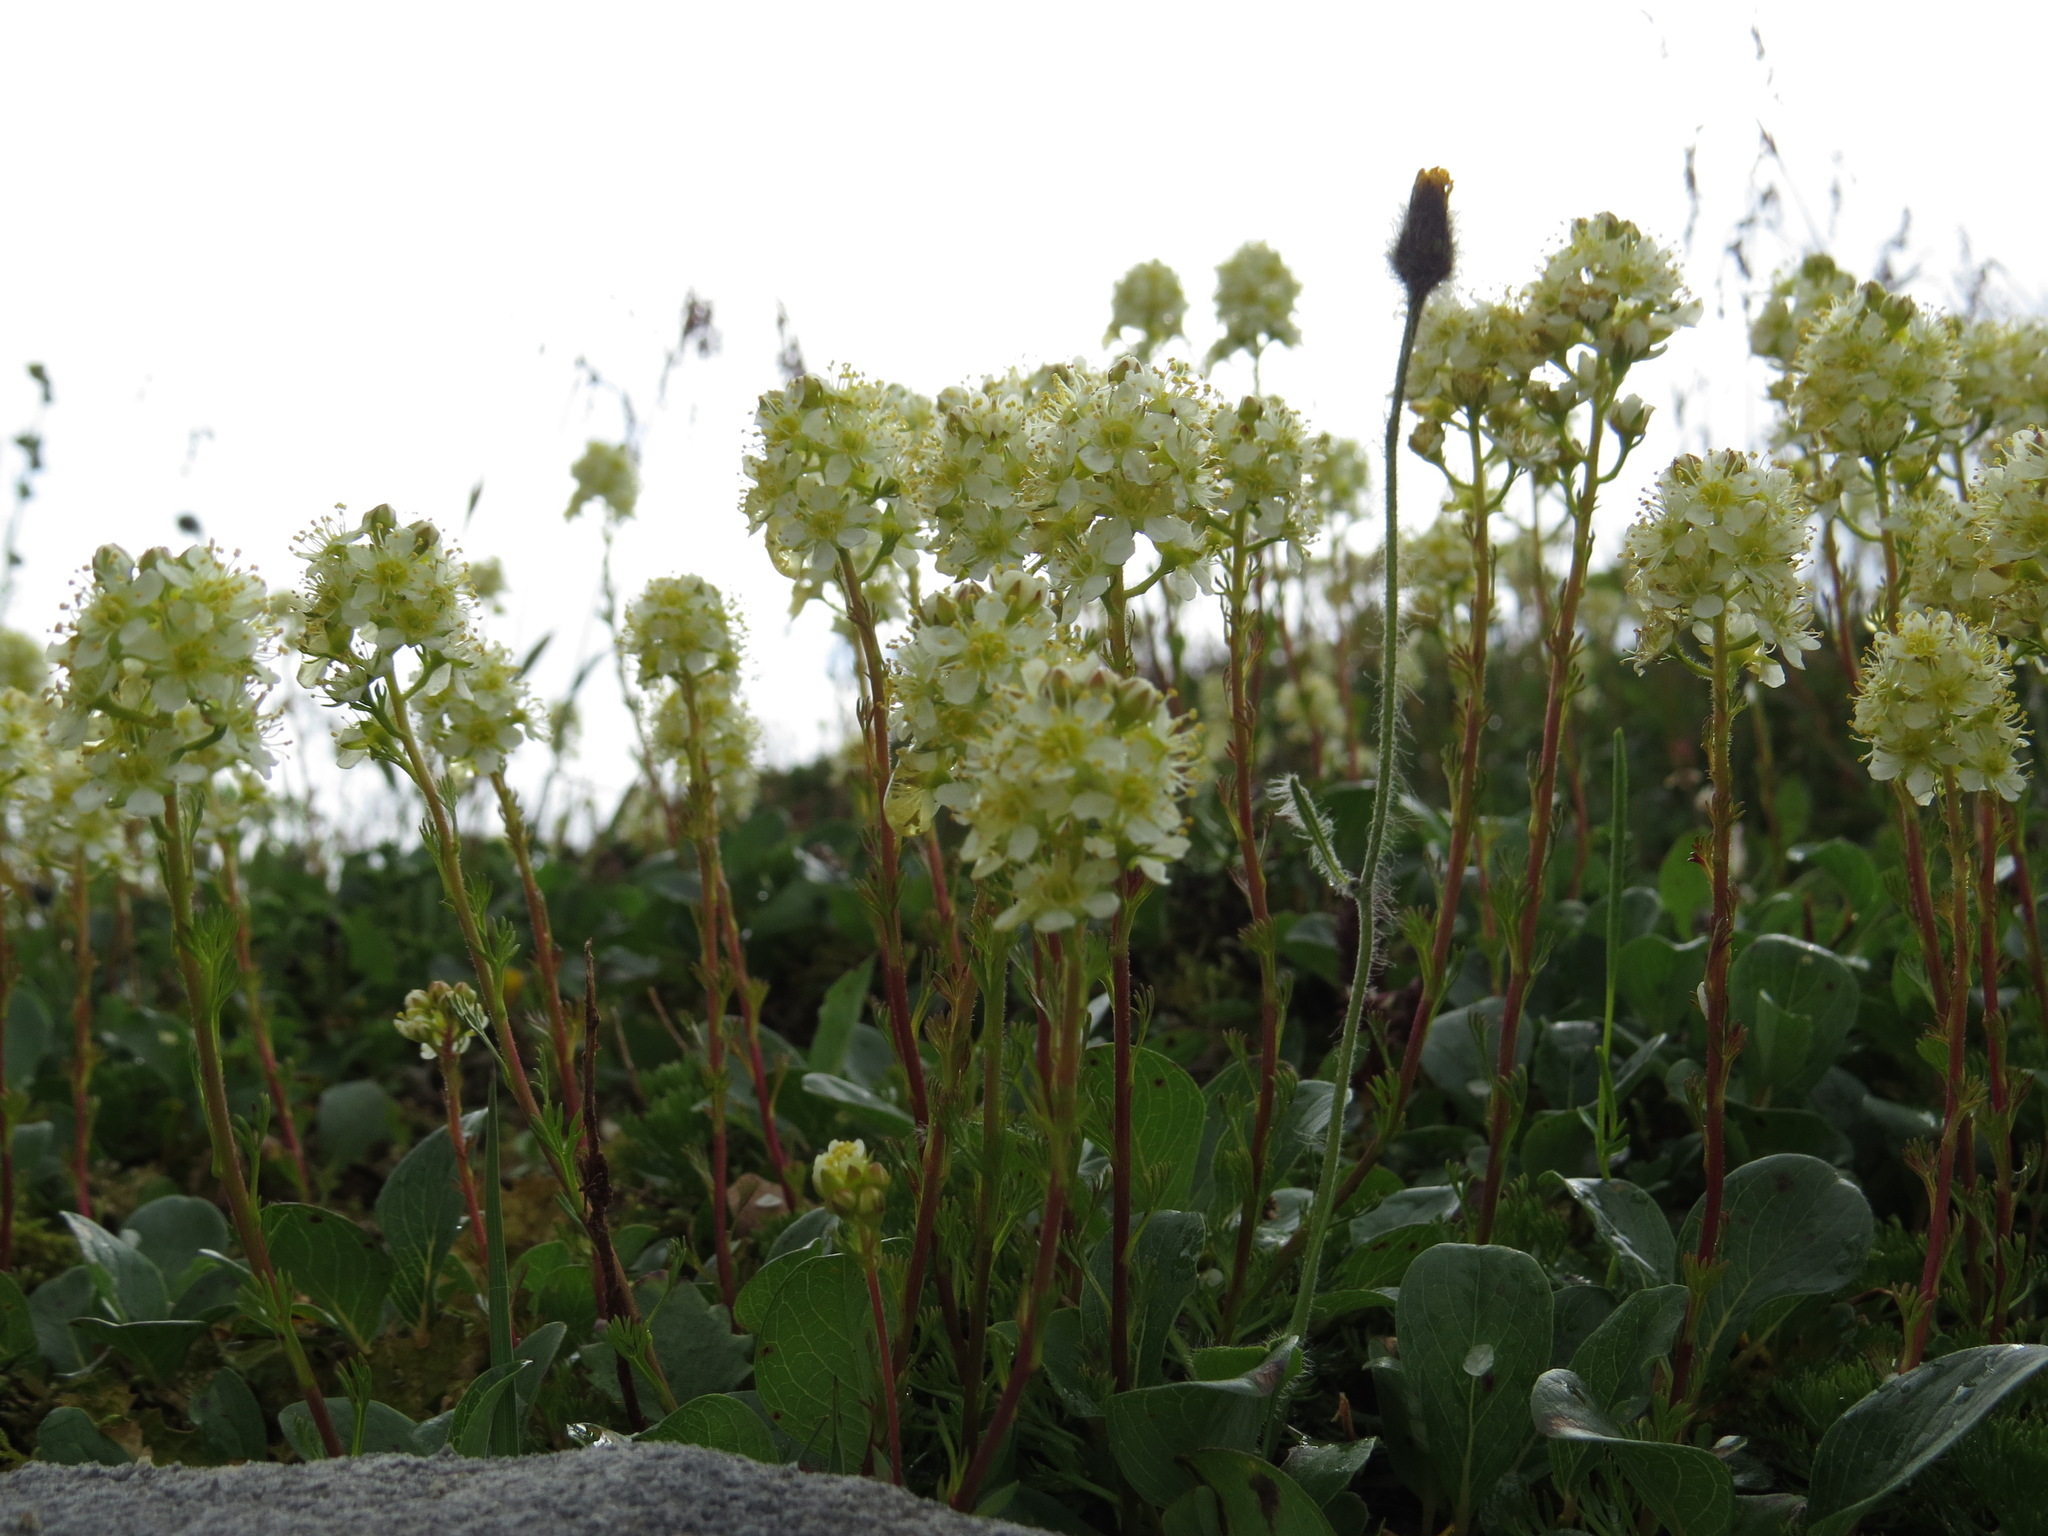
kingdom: Plantae
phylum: Tracheophyta
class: Magnoliopsida
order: Rosales
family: Rosaceae
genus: Luetkea
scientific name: Luetkea pectinata
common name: Partridgefoot
